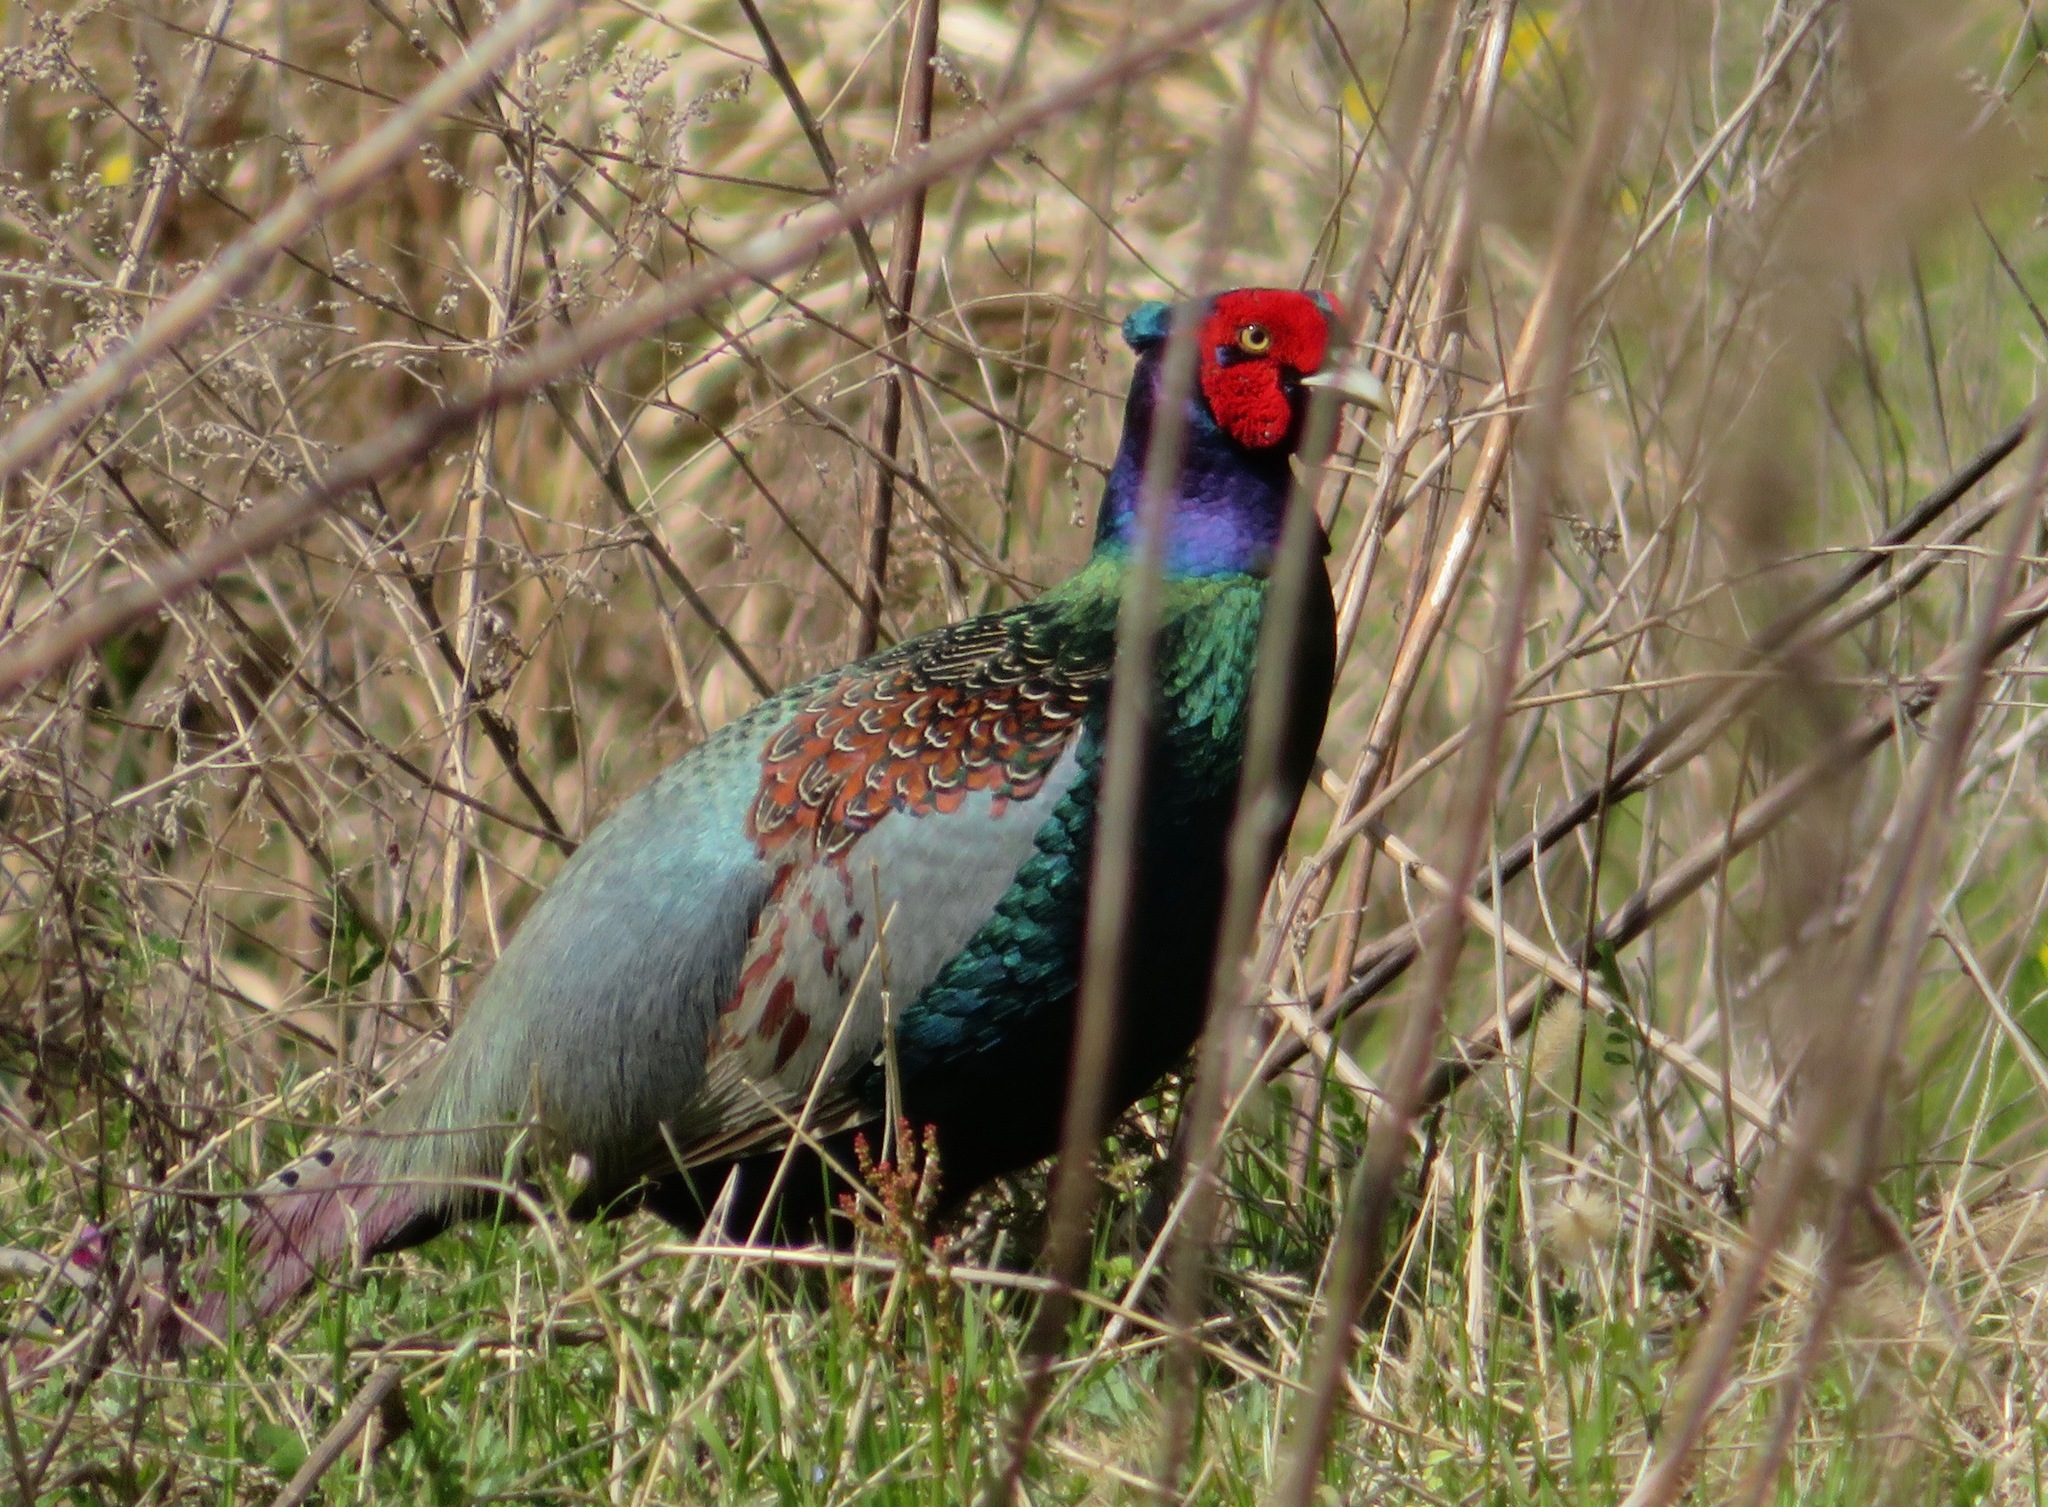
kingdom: Animalia
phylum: Chordata
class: Aves
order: Galliformes
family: Phasianidae
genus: Phasianus
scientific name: Phasianus versicolor
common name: Green pheasant
